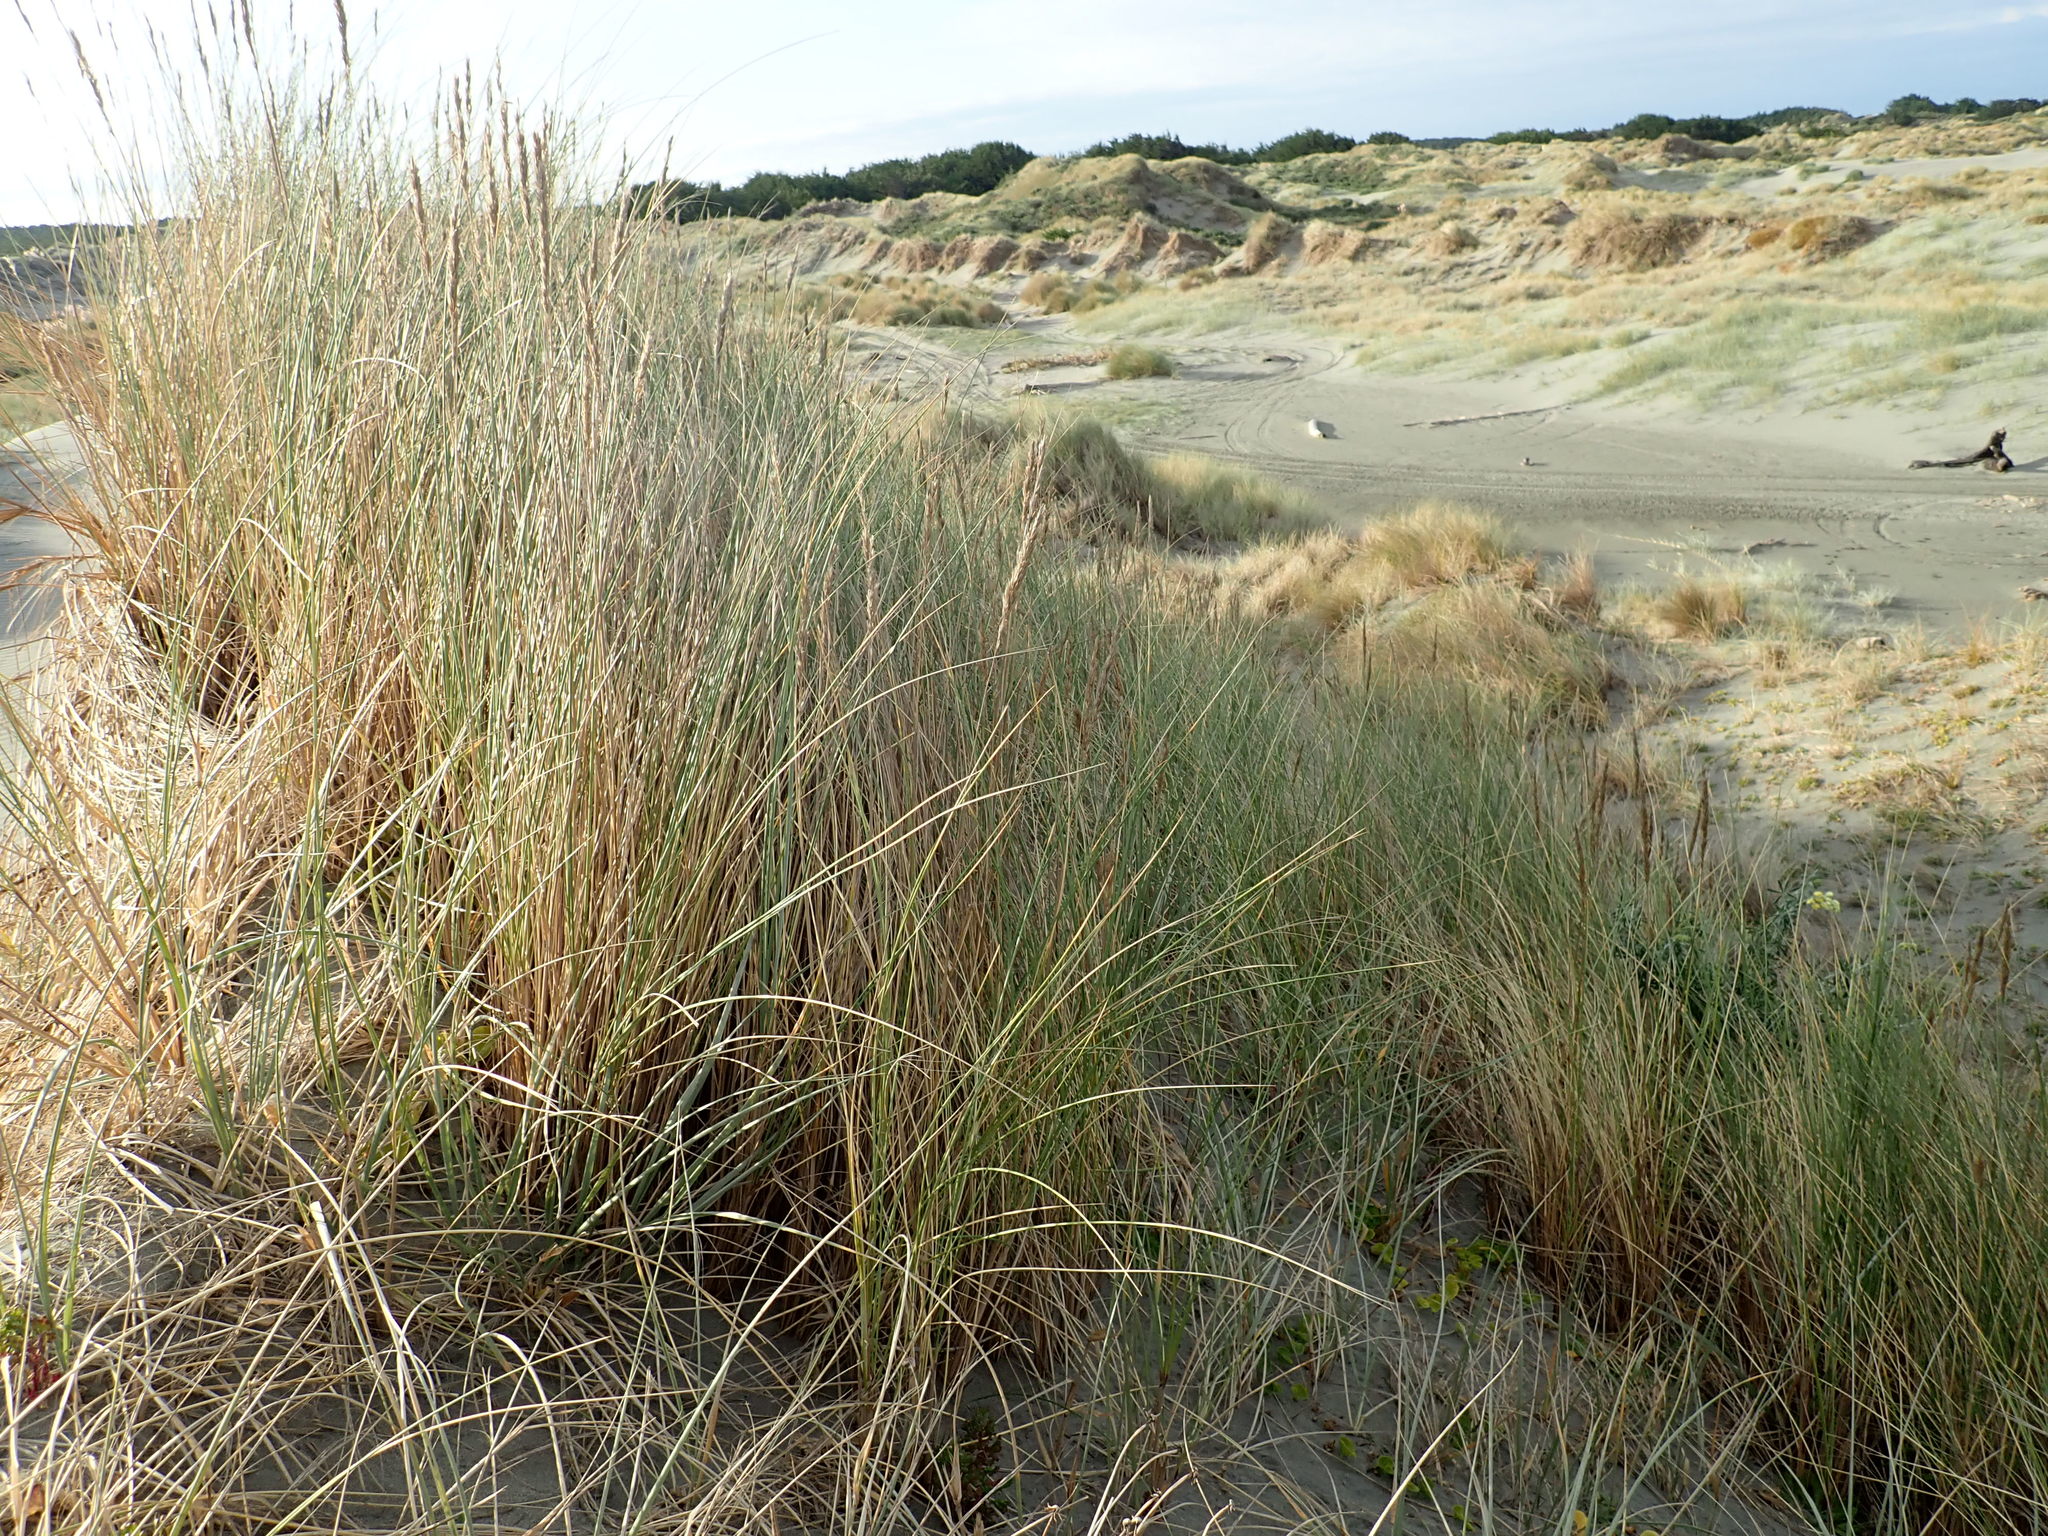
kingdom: Plantae
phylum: Tracheophyta
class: Liliopsida
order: Poales
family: Poaceae
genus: Calamagrostis
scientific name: Calamagrostis arenaria
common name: European beachgrass
